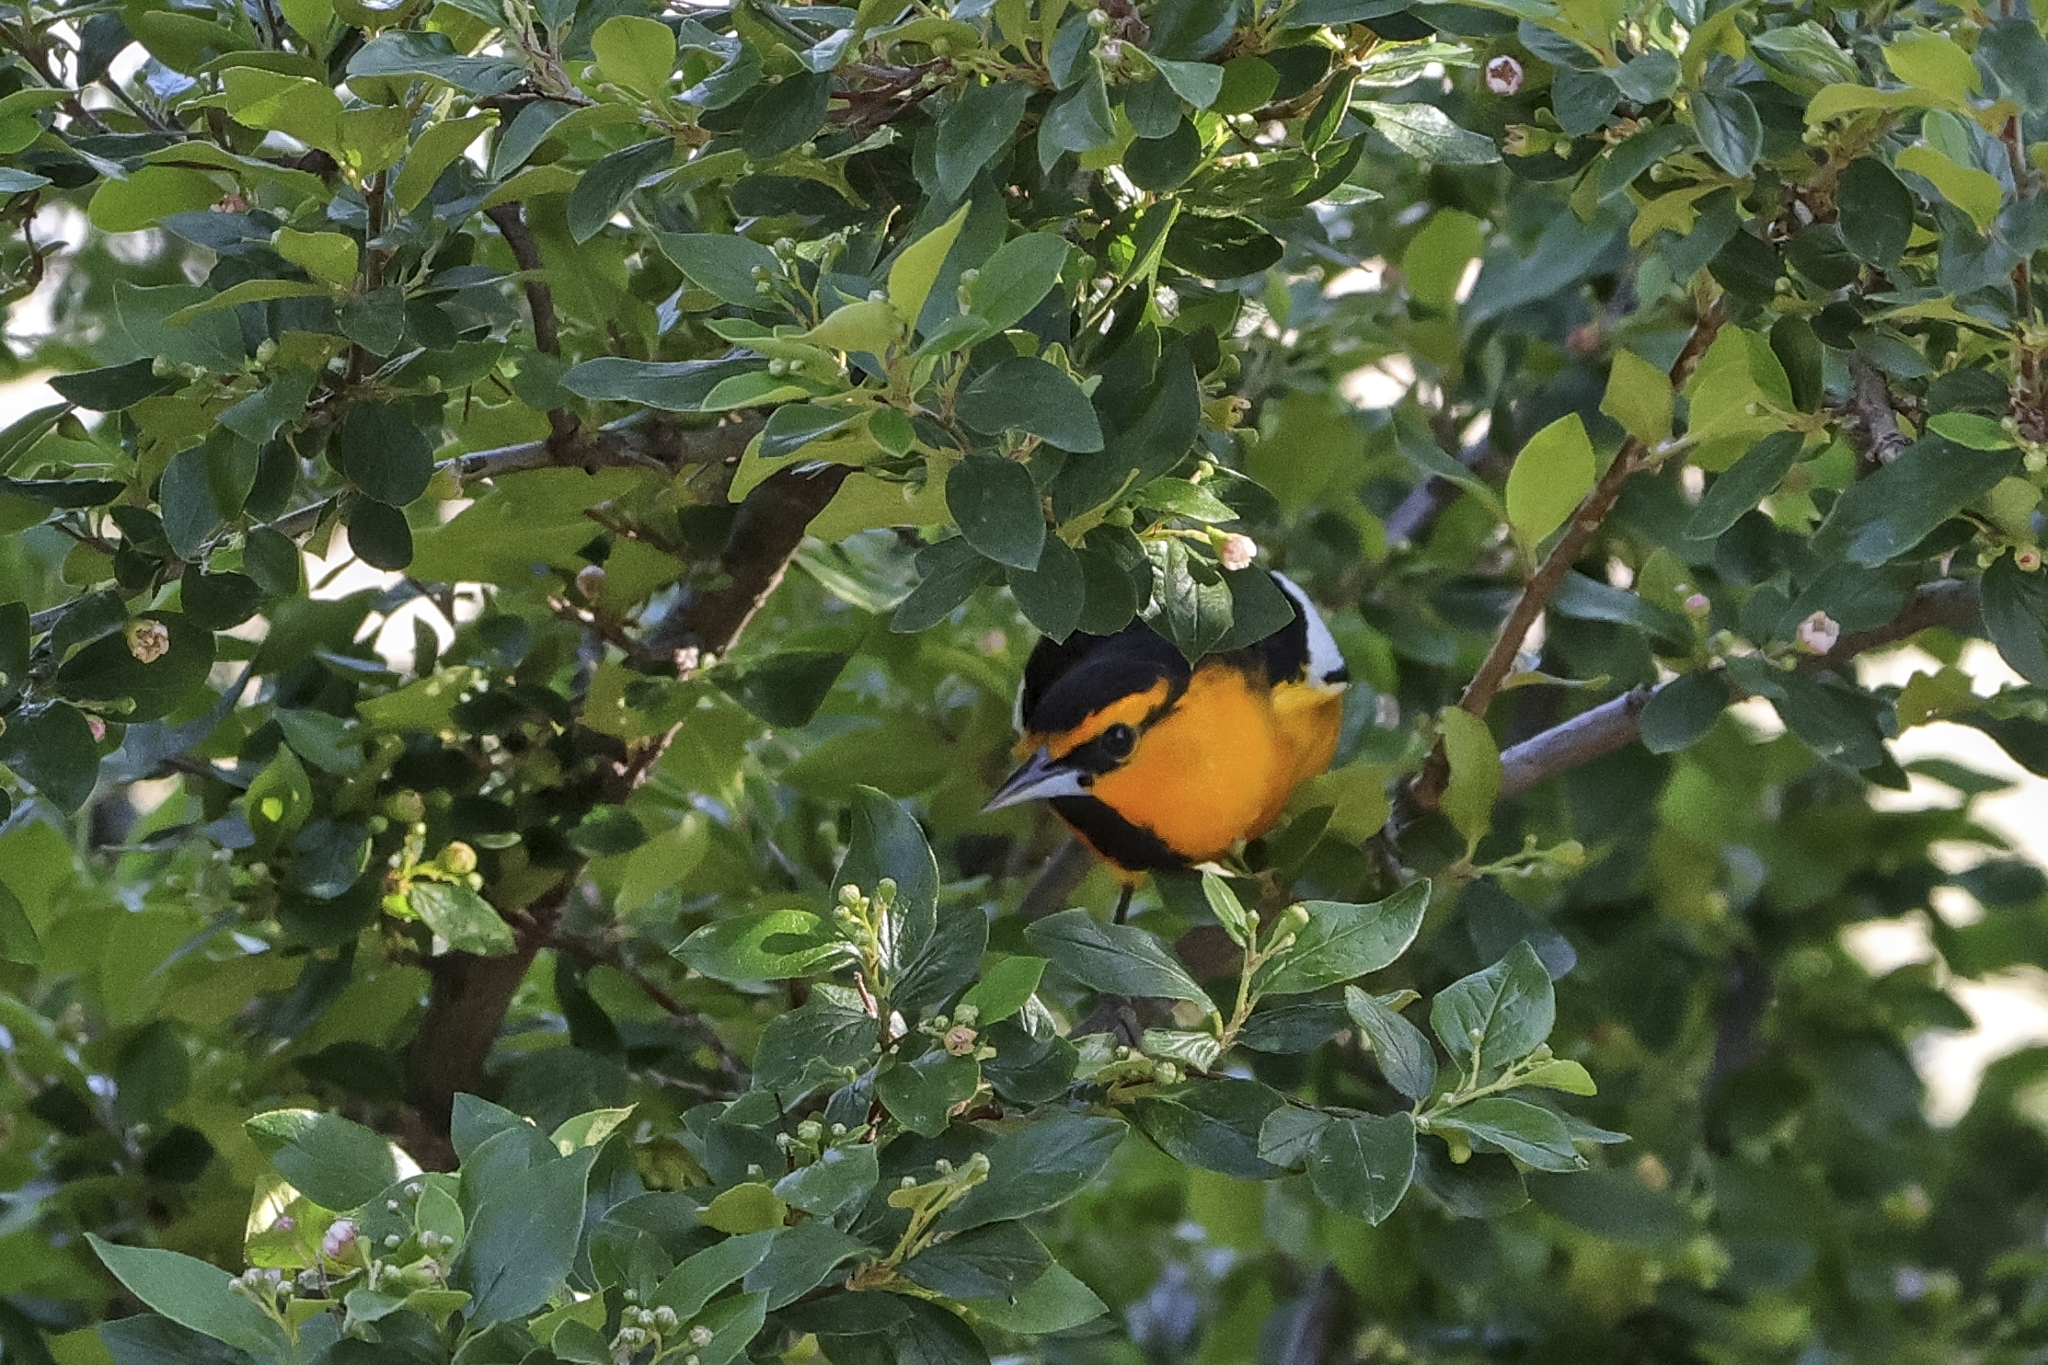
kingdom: Animalia
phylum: Chordata
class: Aves
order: Passeriformes
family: Icteridae
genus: Icterus
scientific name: Icterus bullockii
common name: Bullock's oriole
